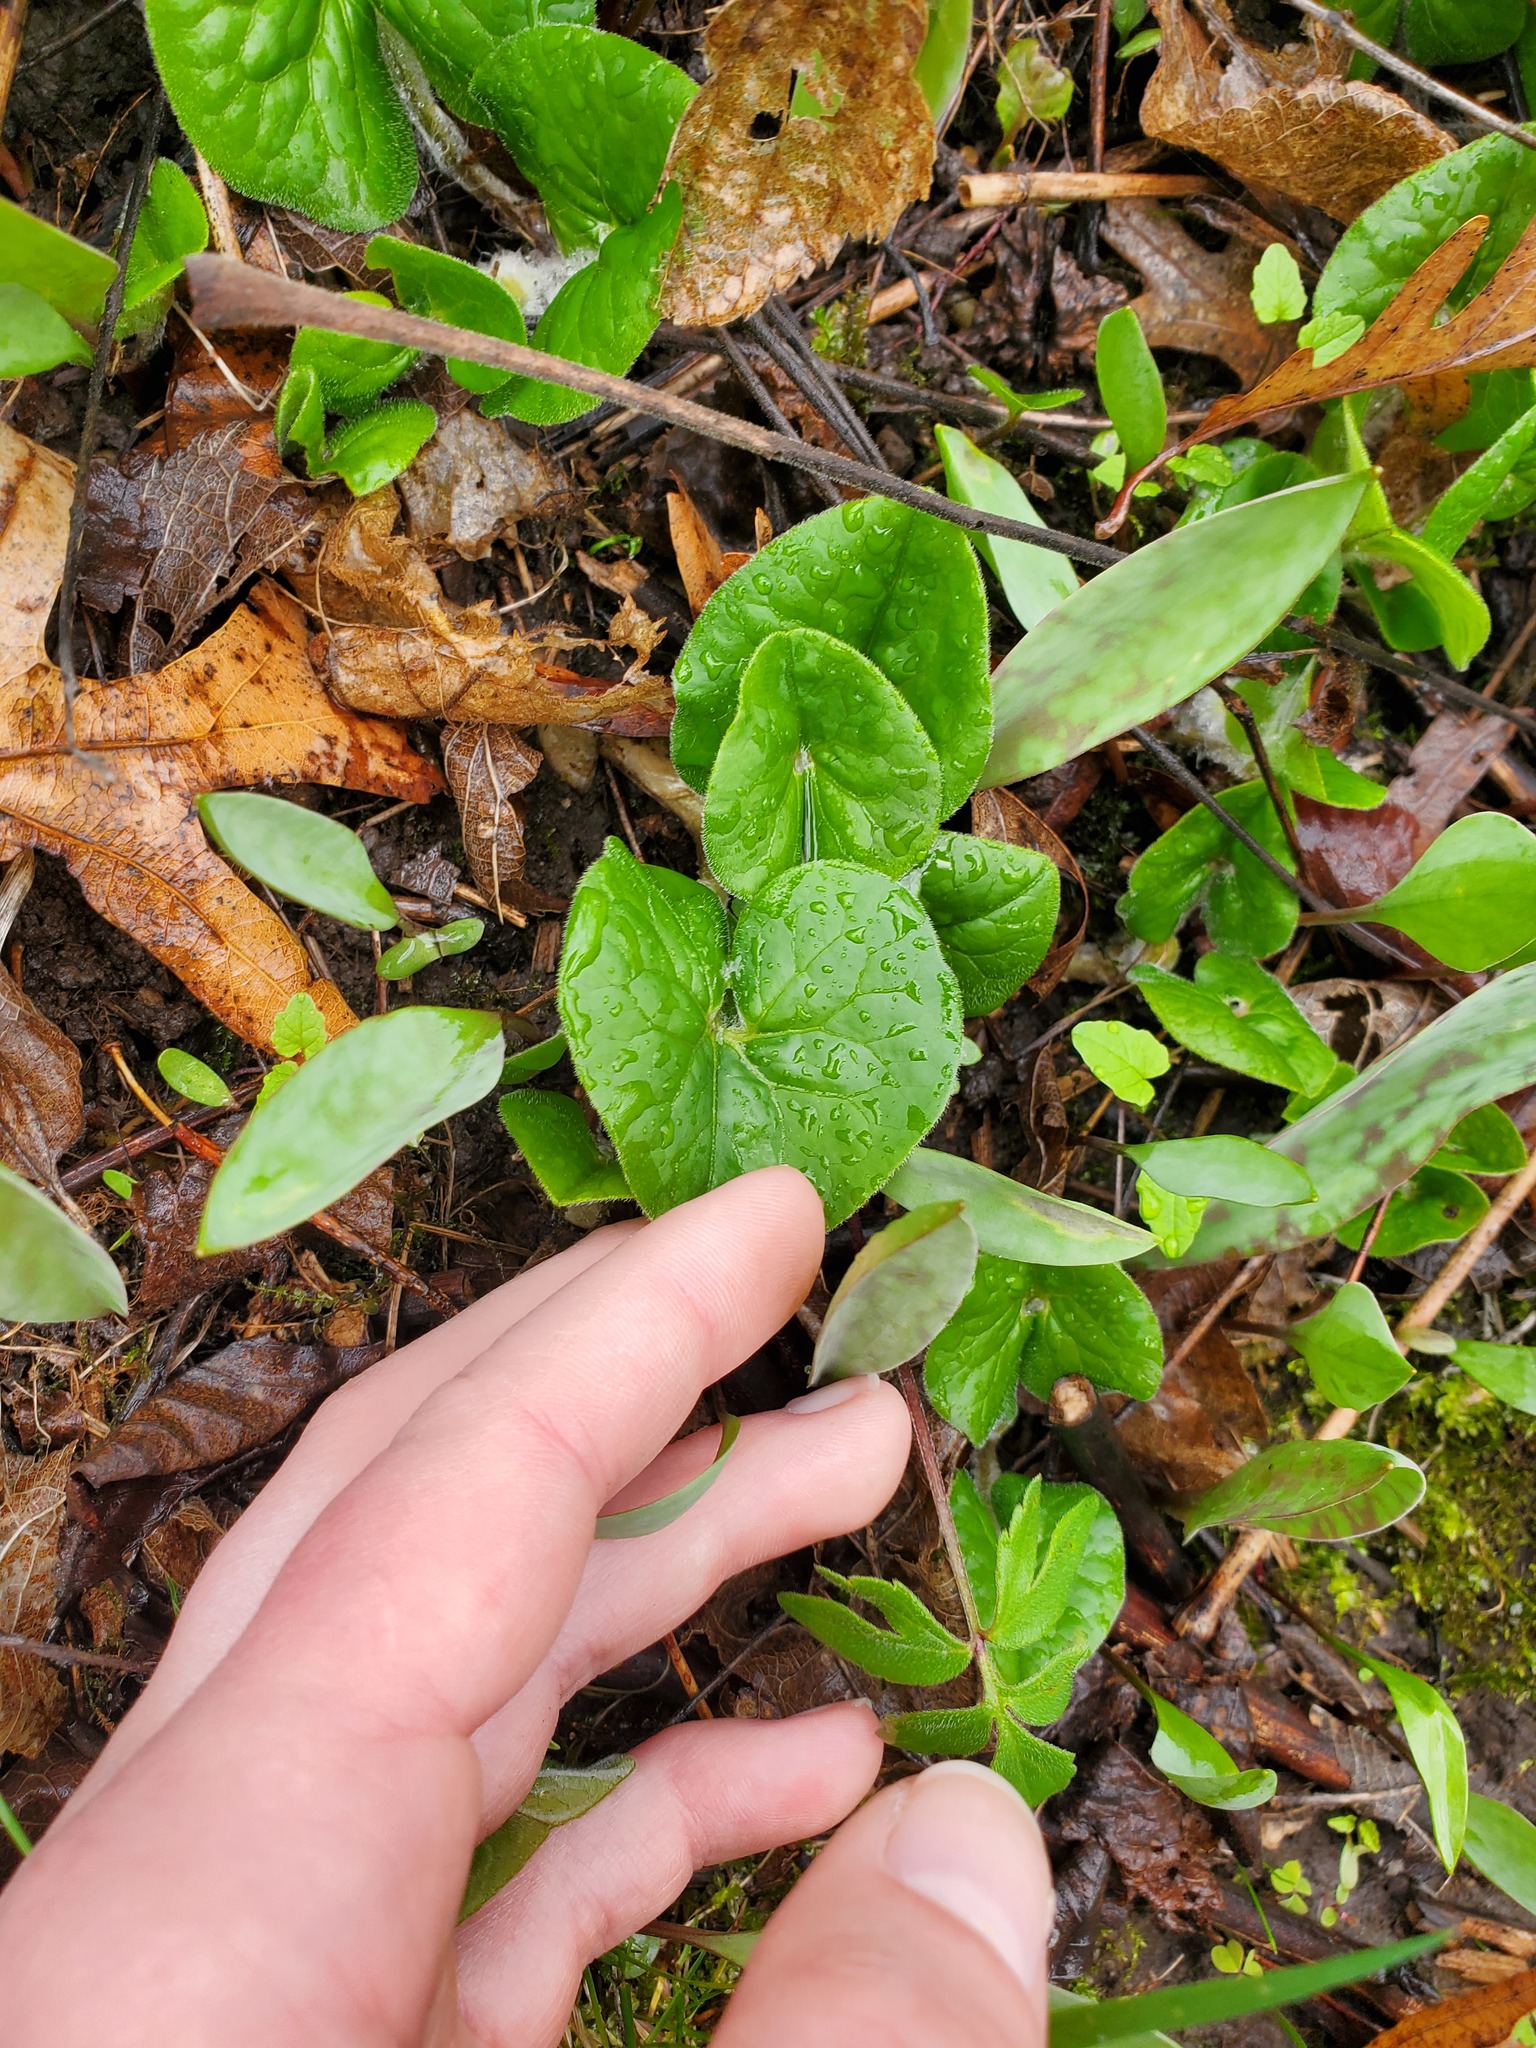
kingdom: Plantae
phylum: Tracheophyta
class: Magnoliopsida
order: Piperales
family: Aristolochiaceae
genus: Asarum
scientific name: Asarum canadense
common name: Wild ginger
